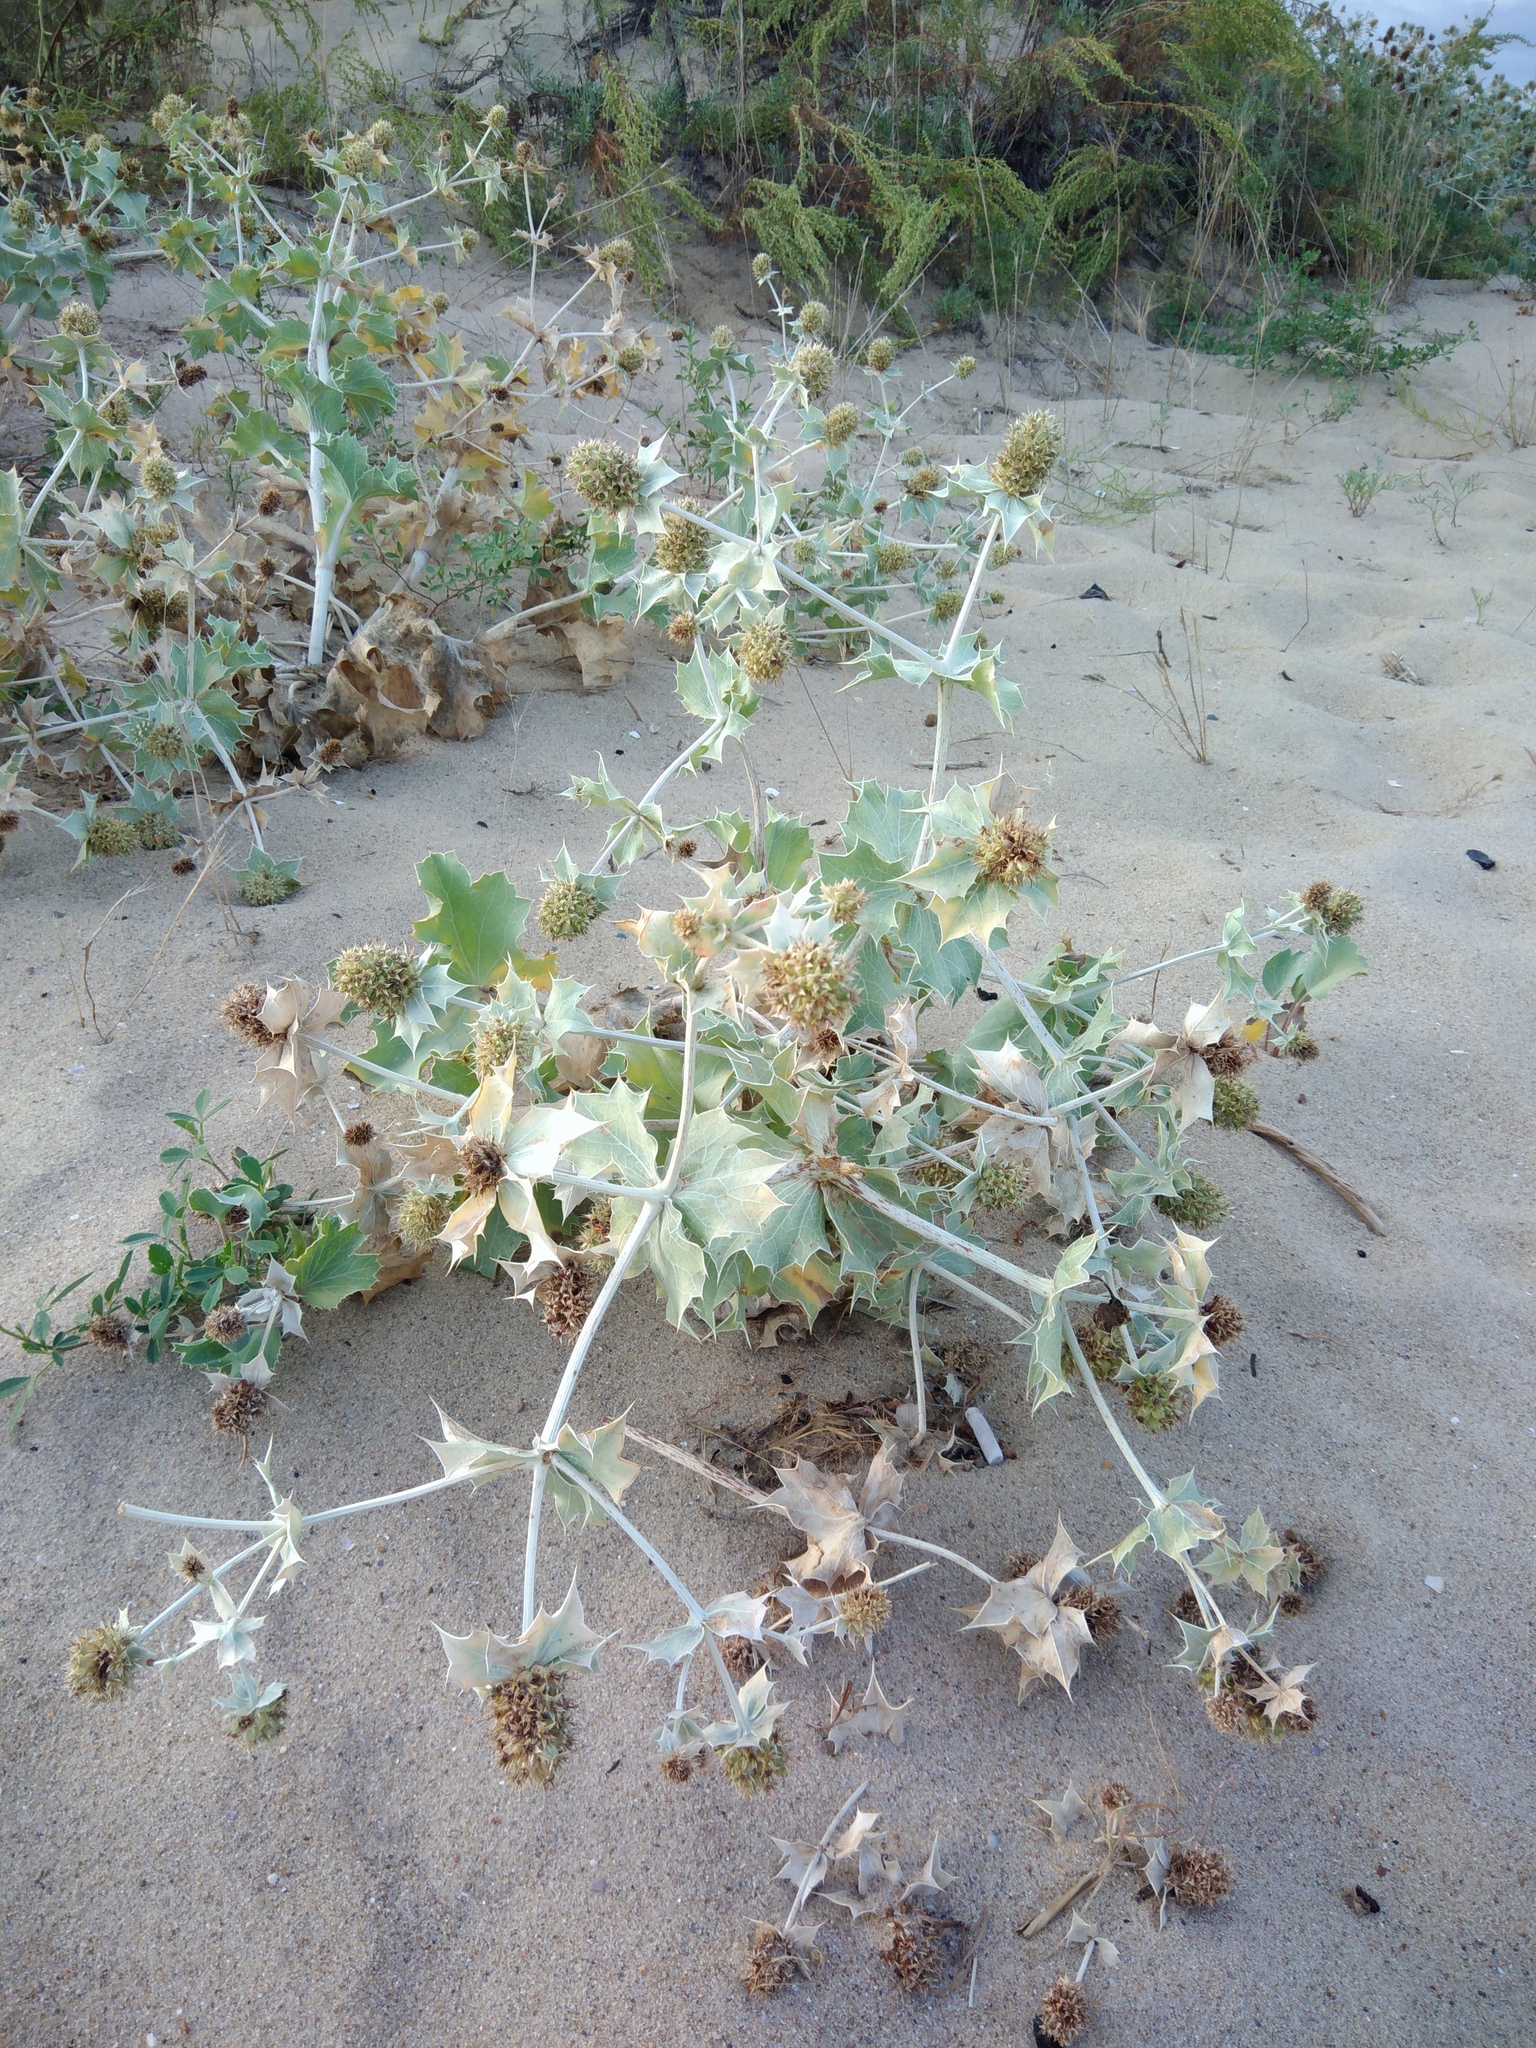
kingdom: Plantae
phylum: Tracheophyta
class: Magnoliopsida
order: Apiales
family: Apiaceae
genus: Eryngium
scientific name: Eryngium maritimum
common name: Sea-holly
